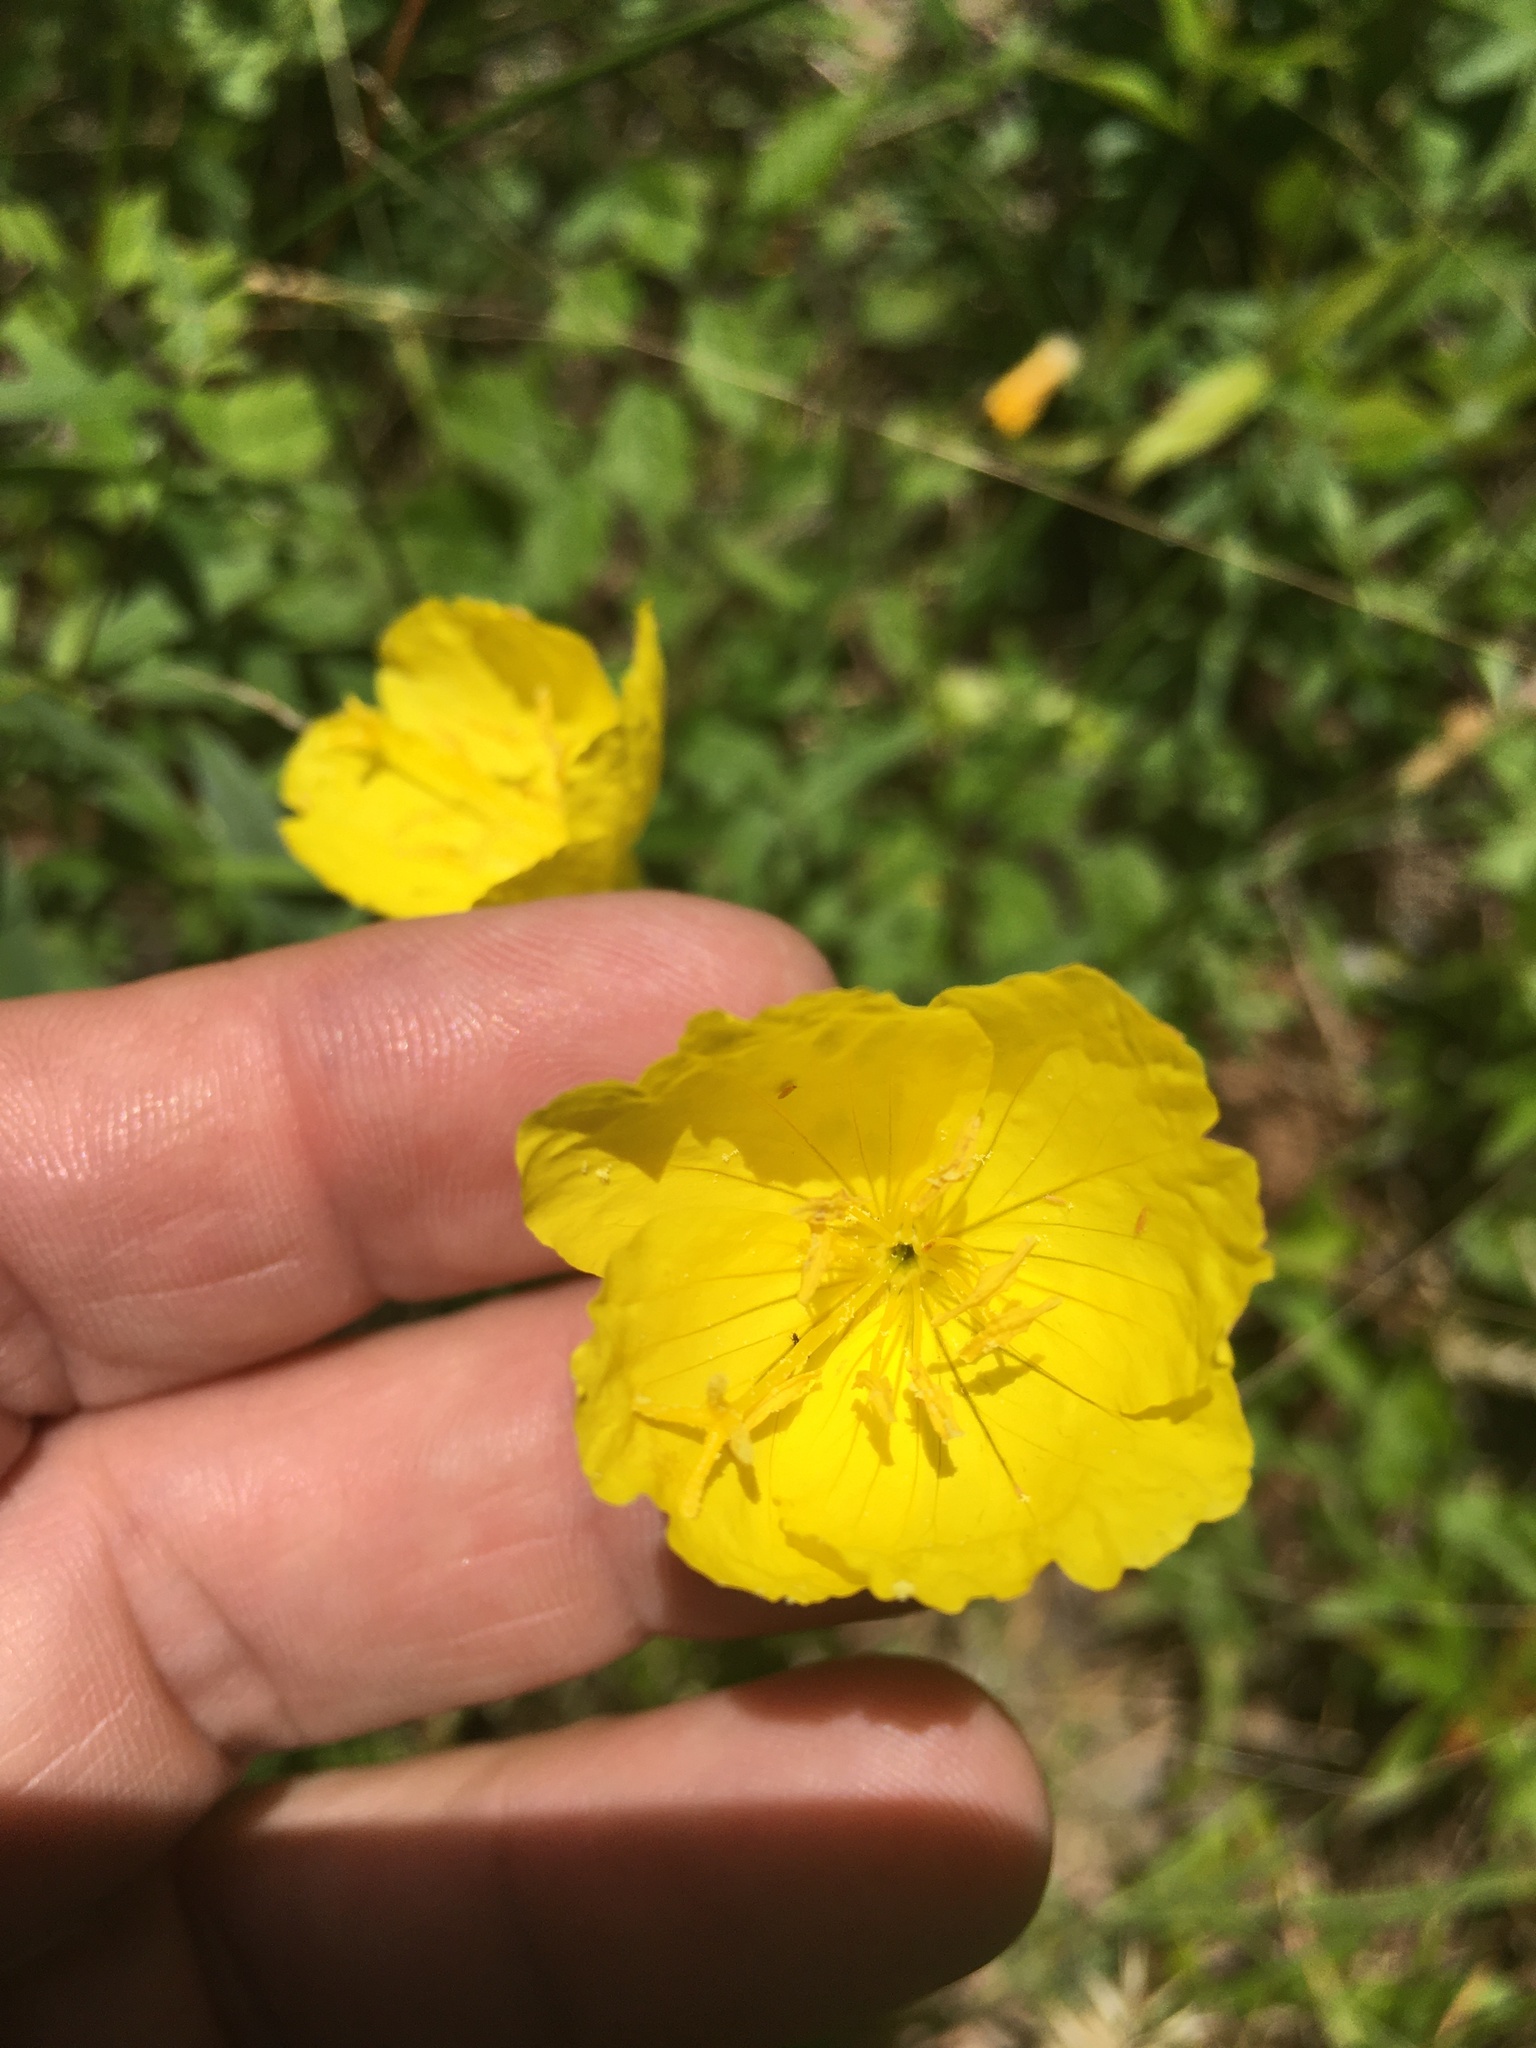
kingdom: Plantae
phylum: Tracheophyta
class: Magnoliopsida
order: Myrtales
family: Onagraceae
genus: Oenothera
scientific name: Oenothera fruticosa
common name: Southern sundrops
